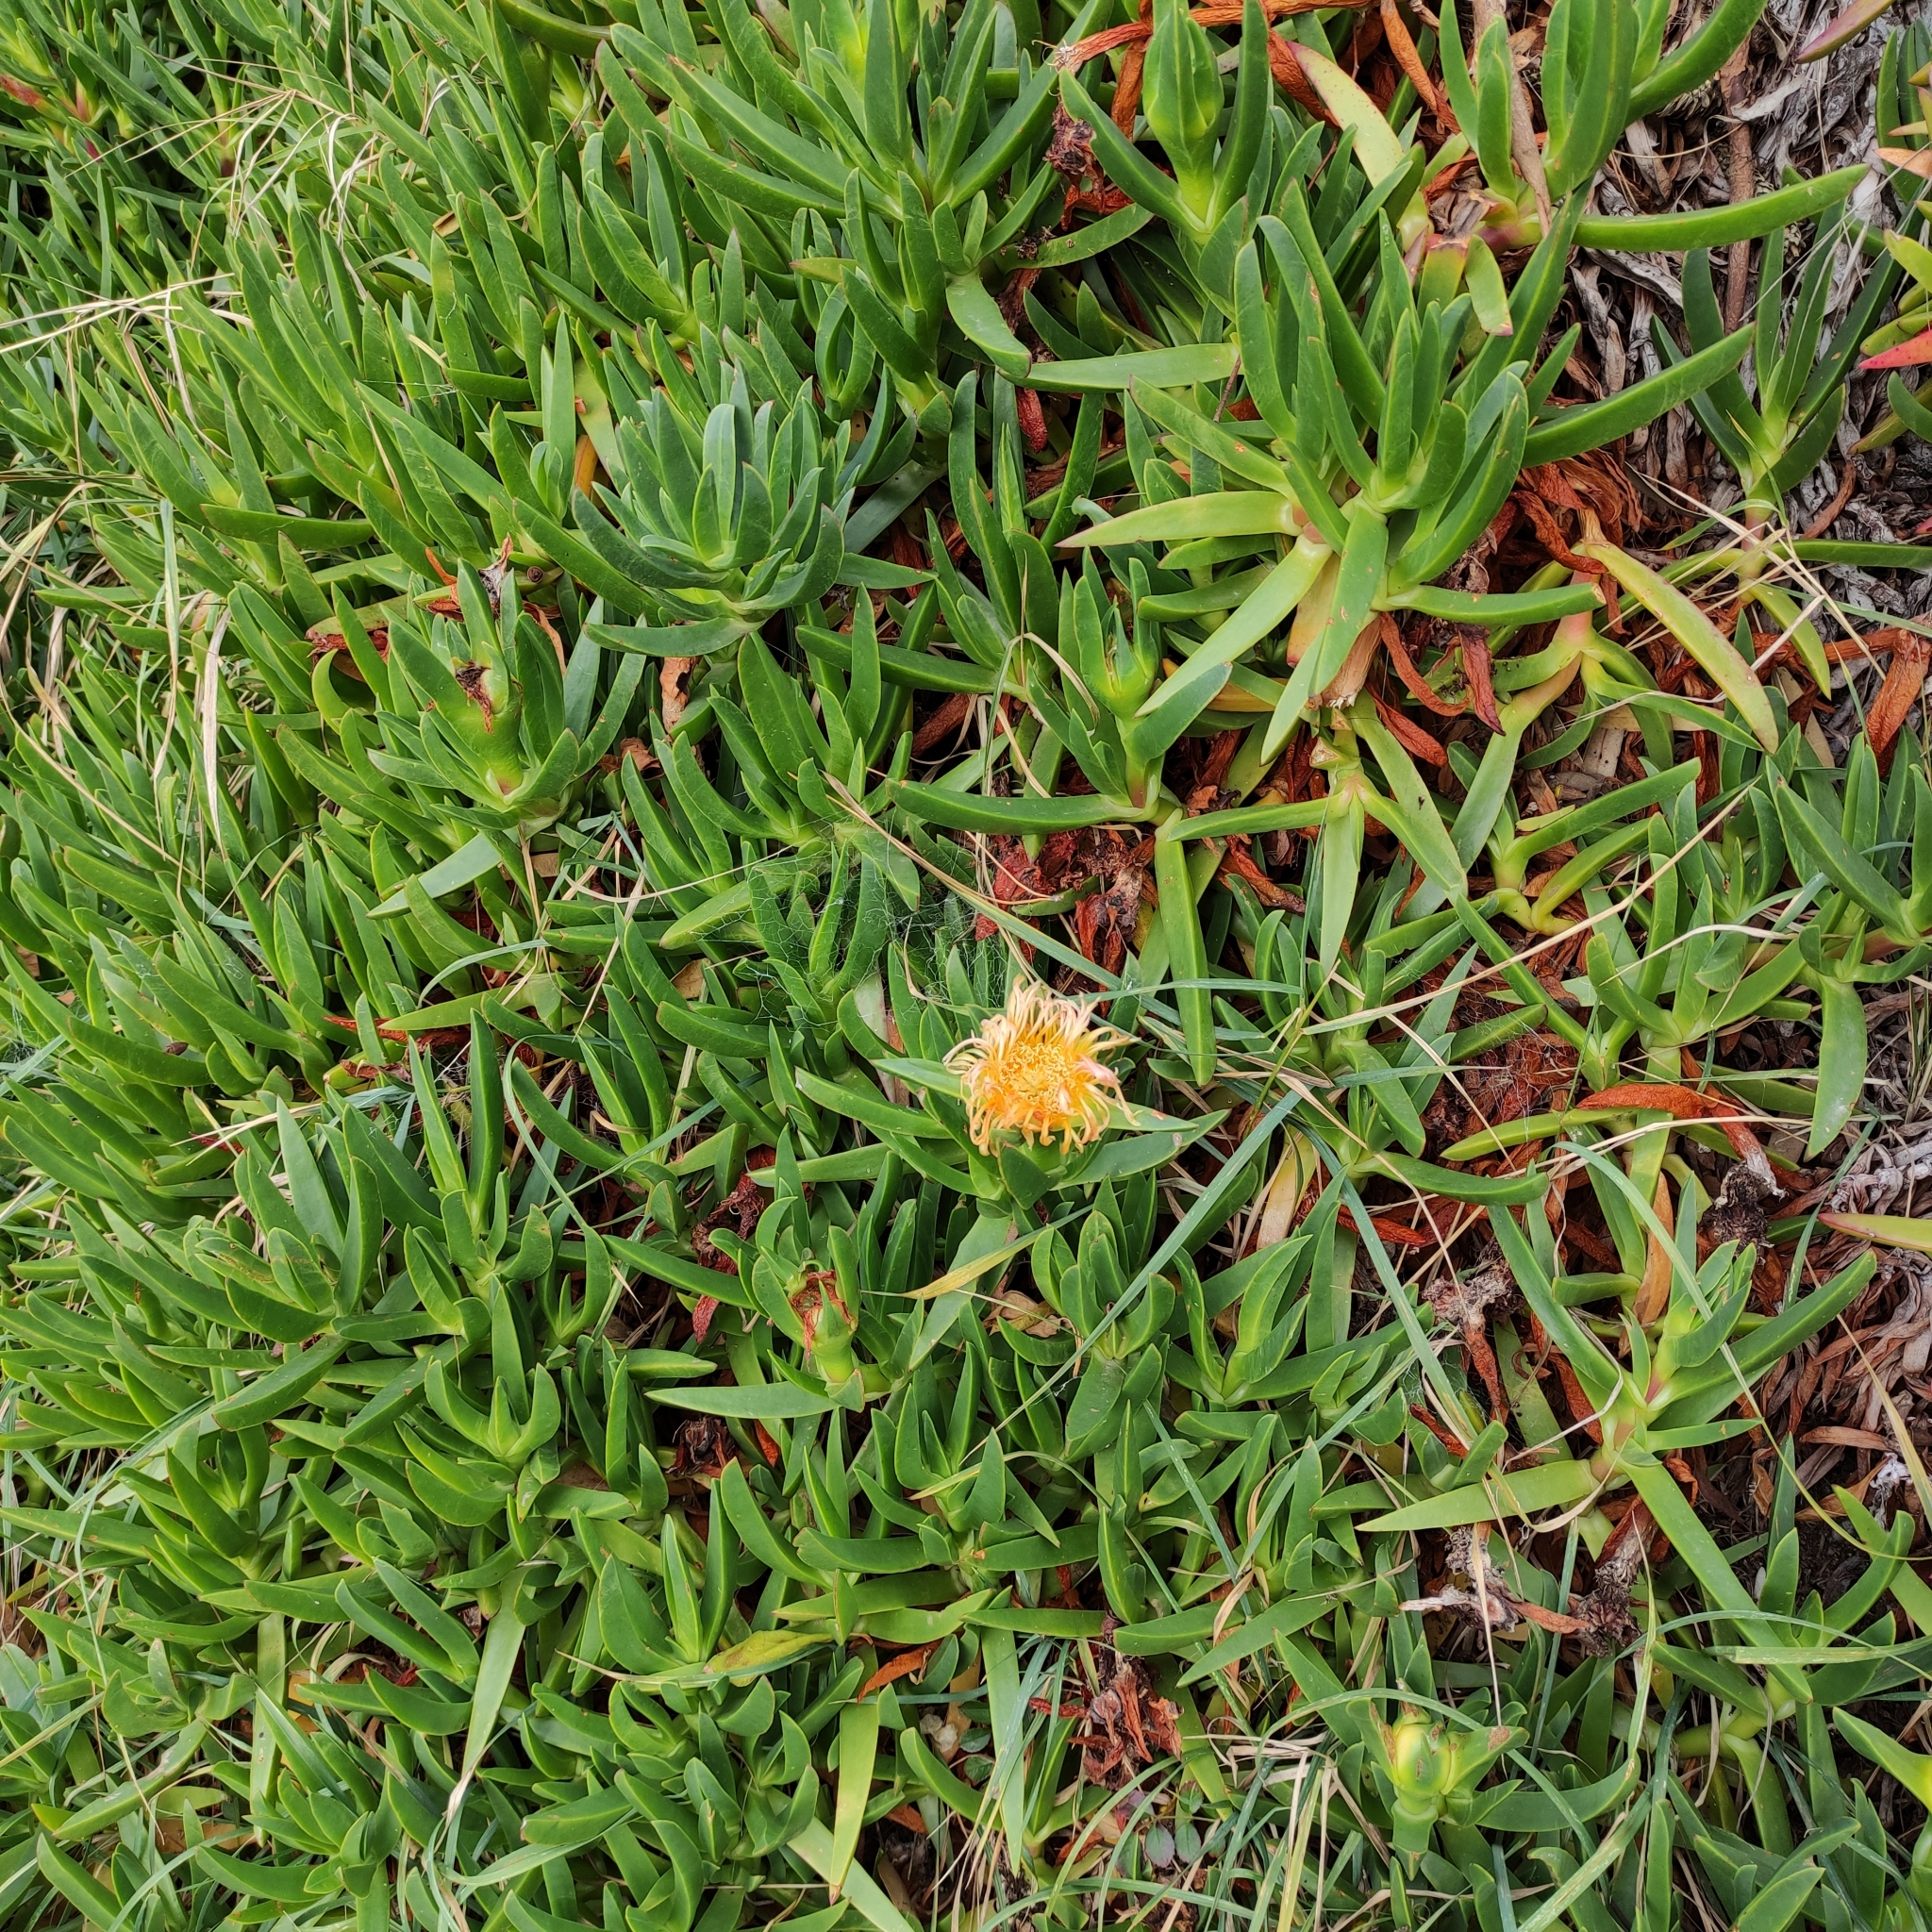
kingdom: Plantae
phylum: Tracheophyta
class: Magnoliopsida
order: Caryophyllales
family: Aizoaceae
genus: Carpobrotus
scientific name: Carpobrotus edulis
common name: Hottentot-fig
